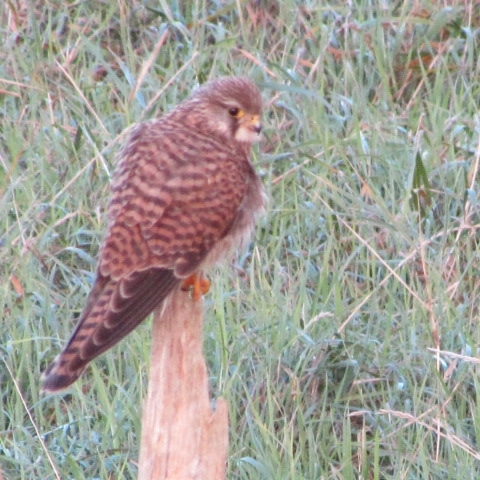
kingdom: Animalia
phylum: Chordata
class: Aves
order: Falconiformes
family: Falconidae
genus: Falco
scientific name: Falco tinnunculus
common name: Common kestrel
